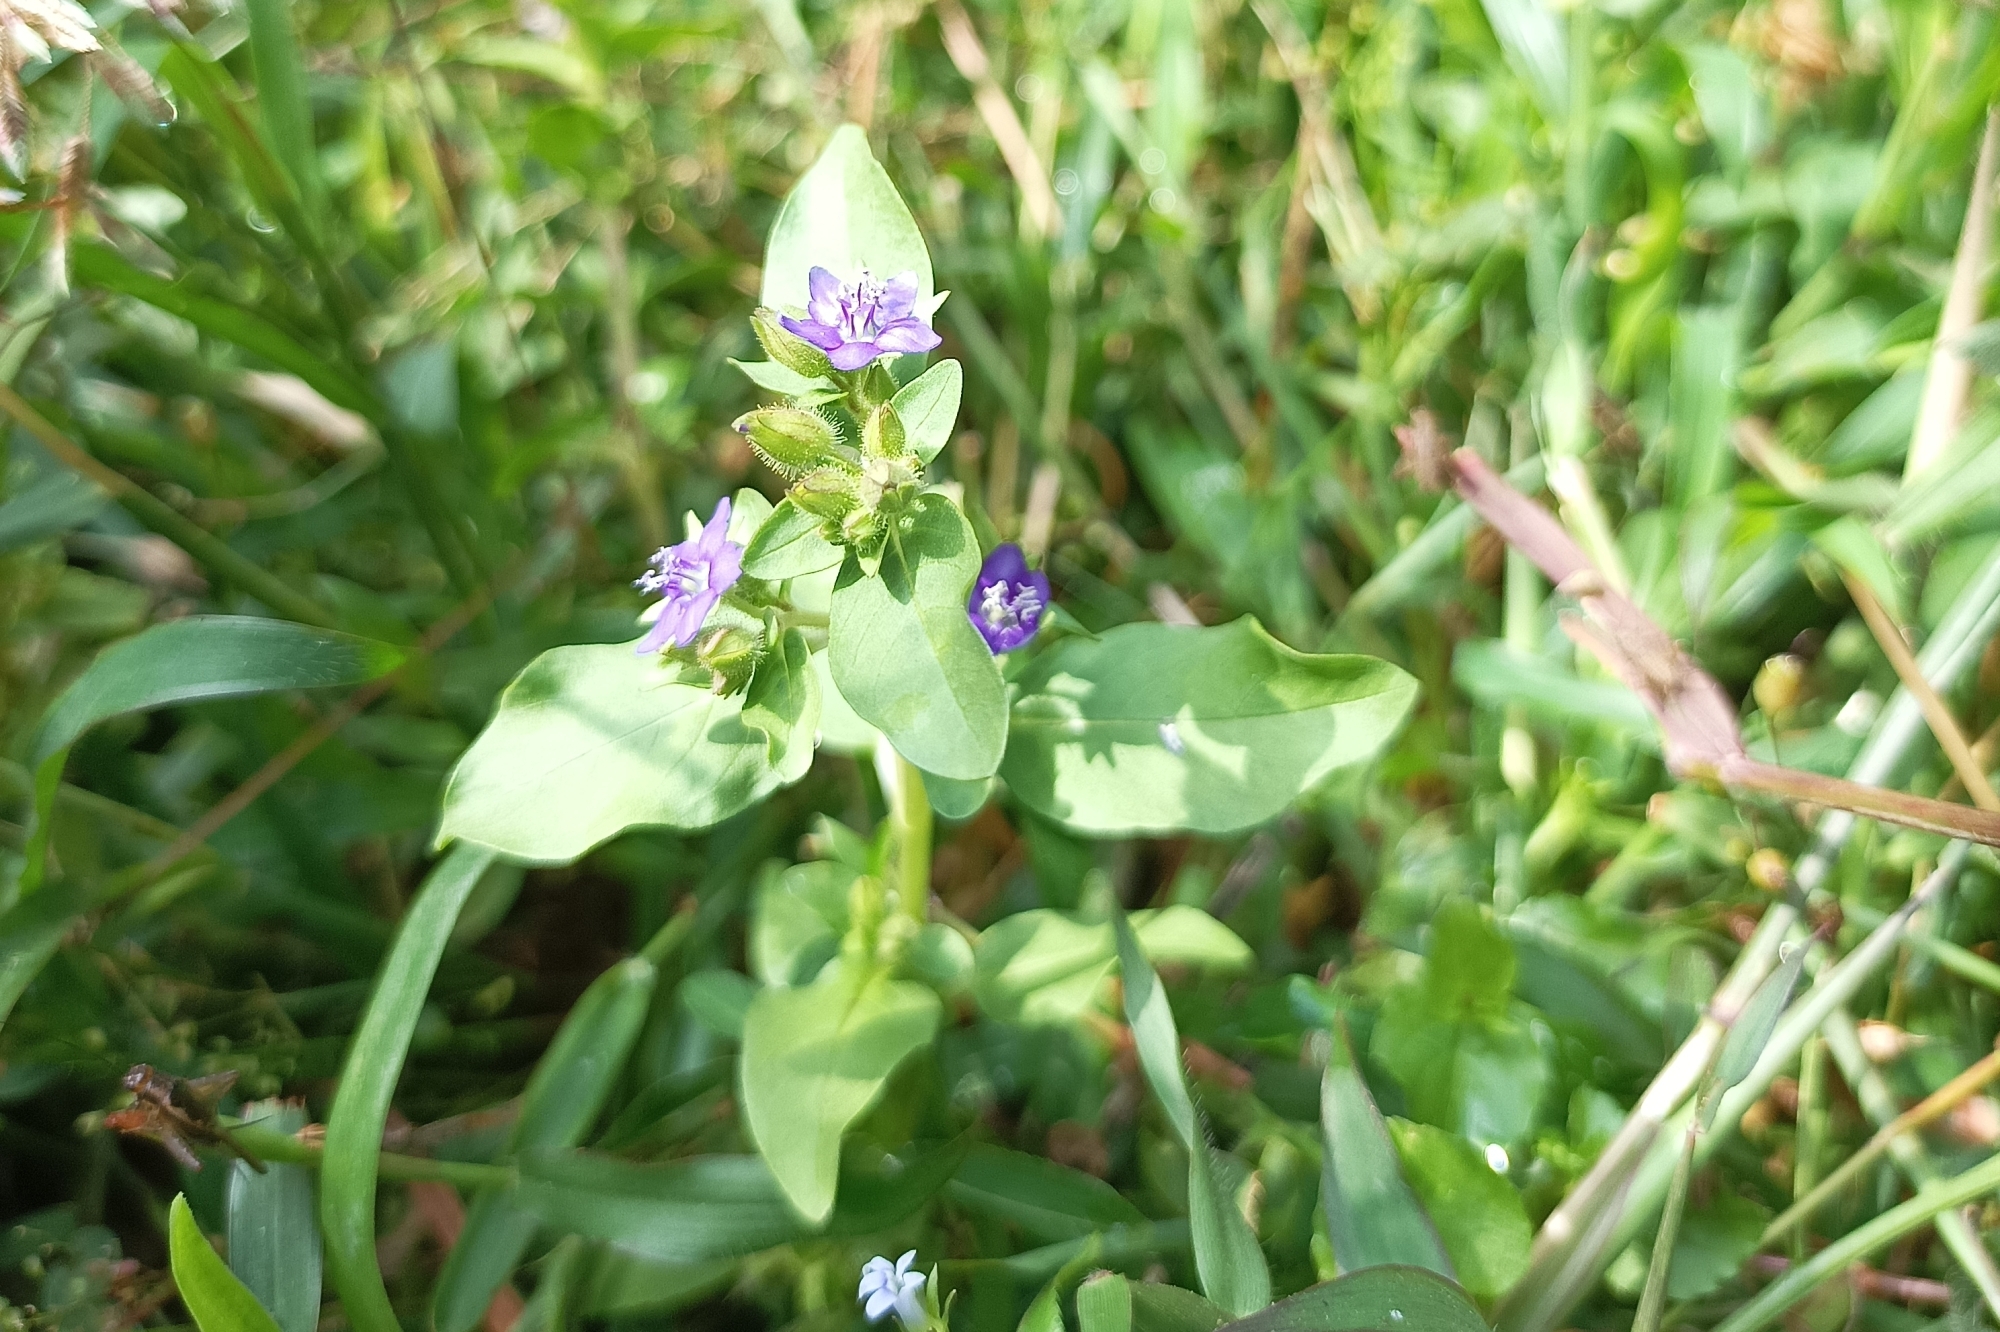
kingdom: Plantae
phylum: Tracheophyta
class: Magnoliopsida
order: Solanales
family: Hydroleaceae
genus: Hydrolea
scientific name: Hydrolea zeylanica
